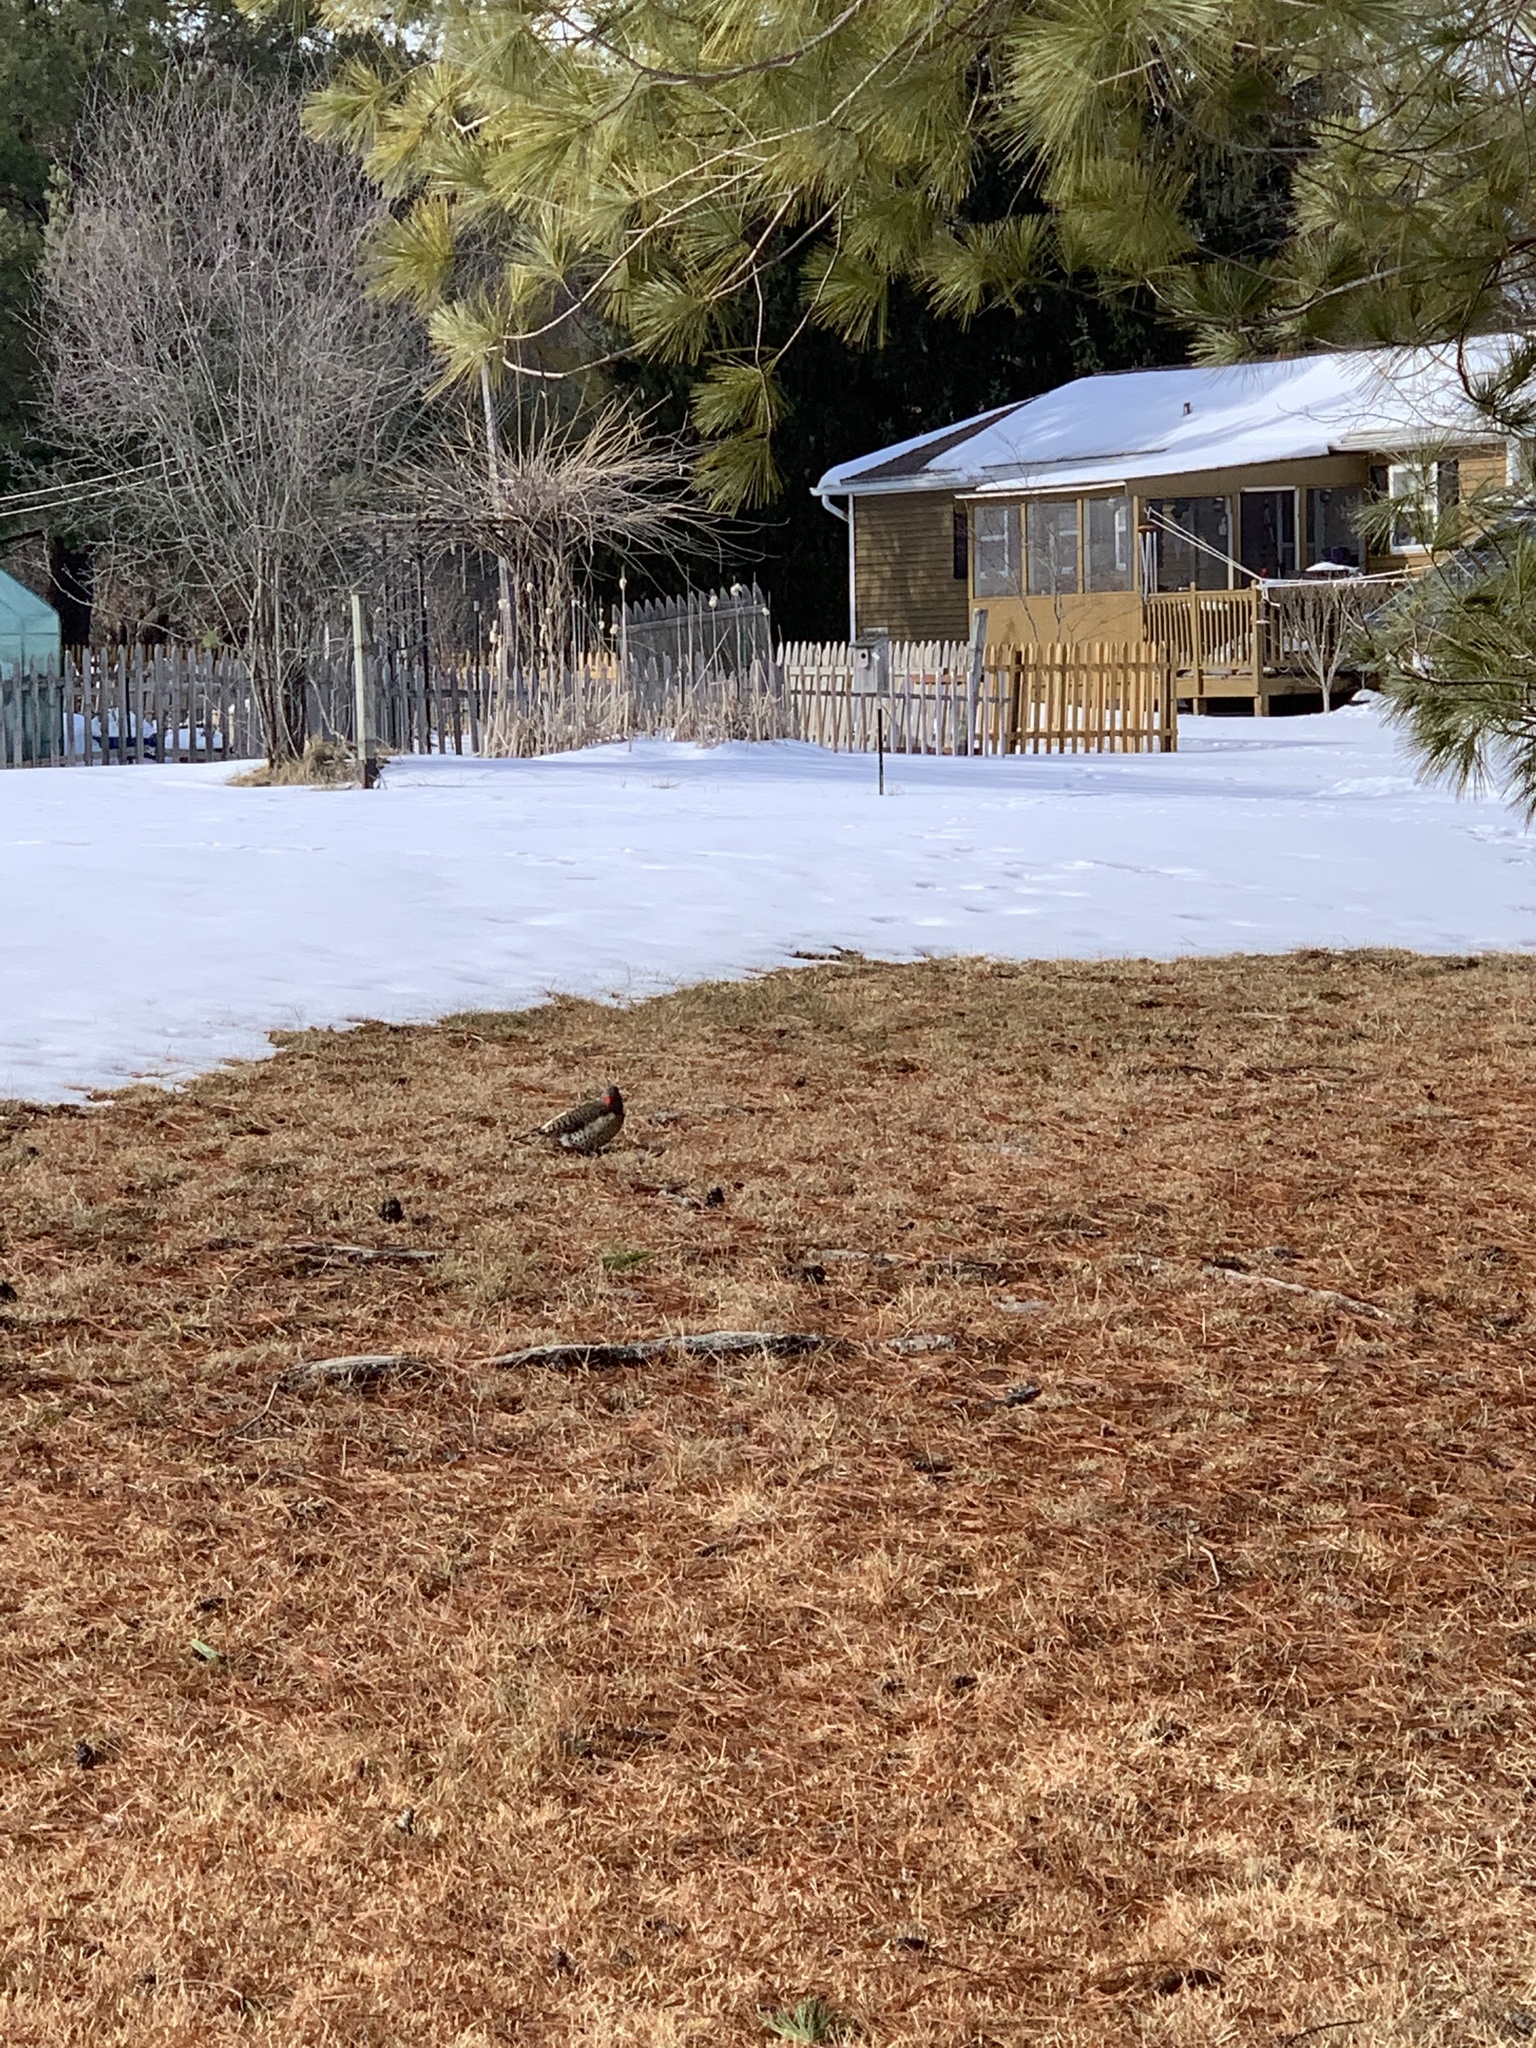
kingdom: Animalia
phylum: Chordata
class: Aves
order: Piciformes
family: Picidae
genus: Colaptes
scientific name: Colaptes auratus
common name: Northern flicker
